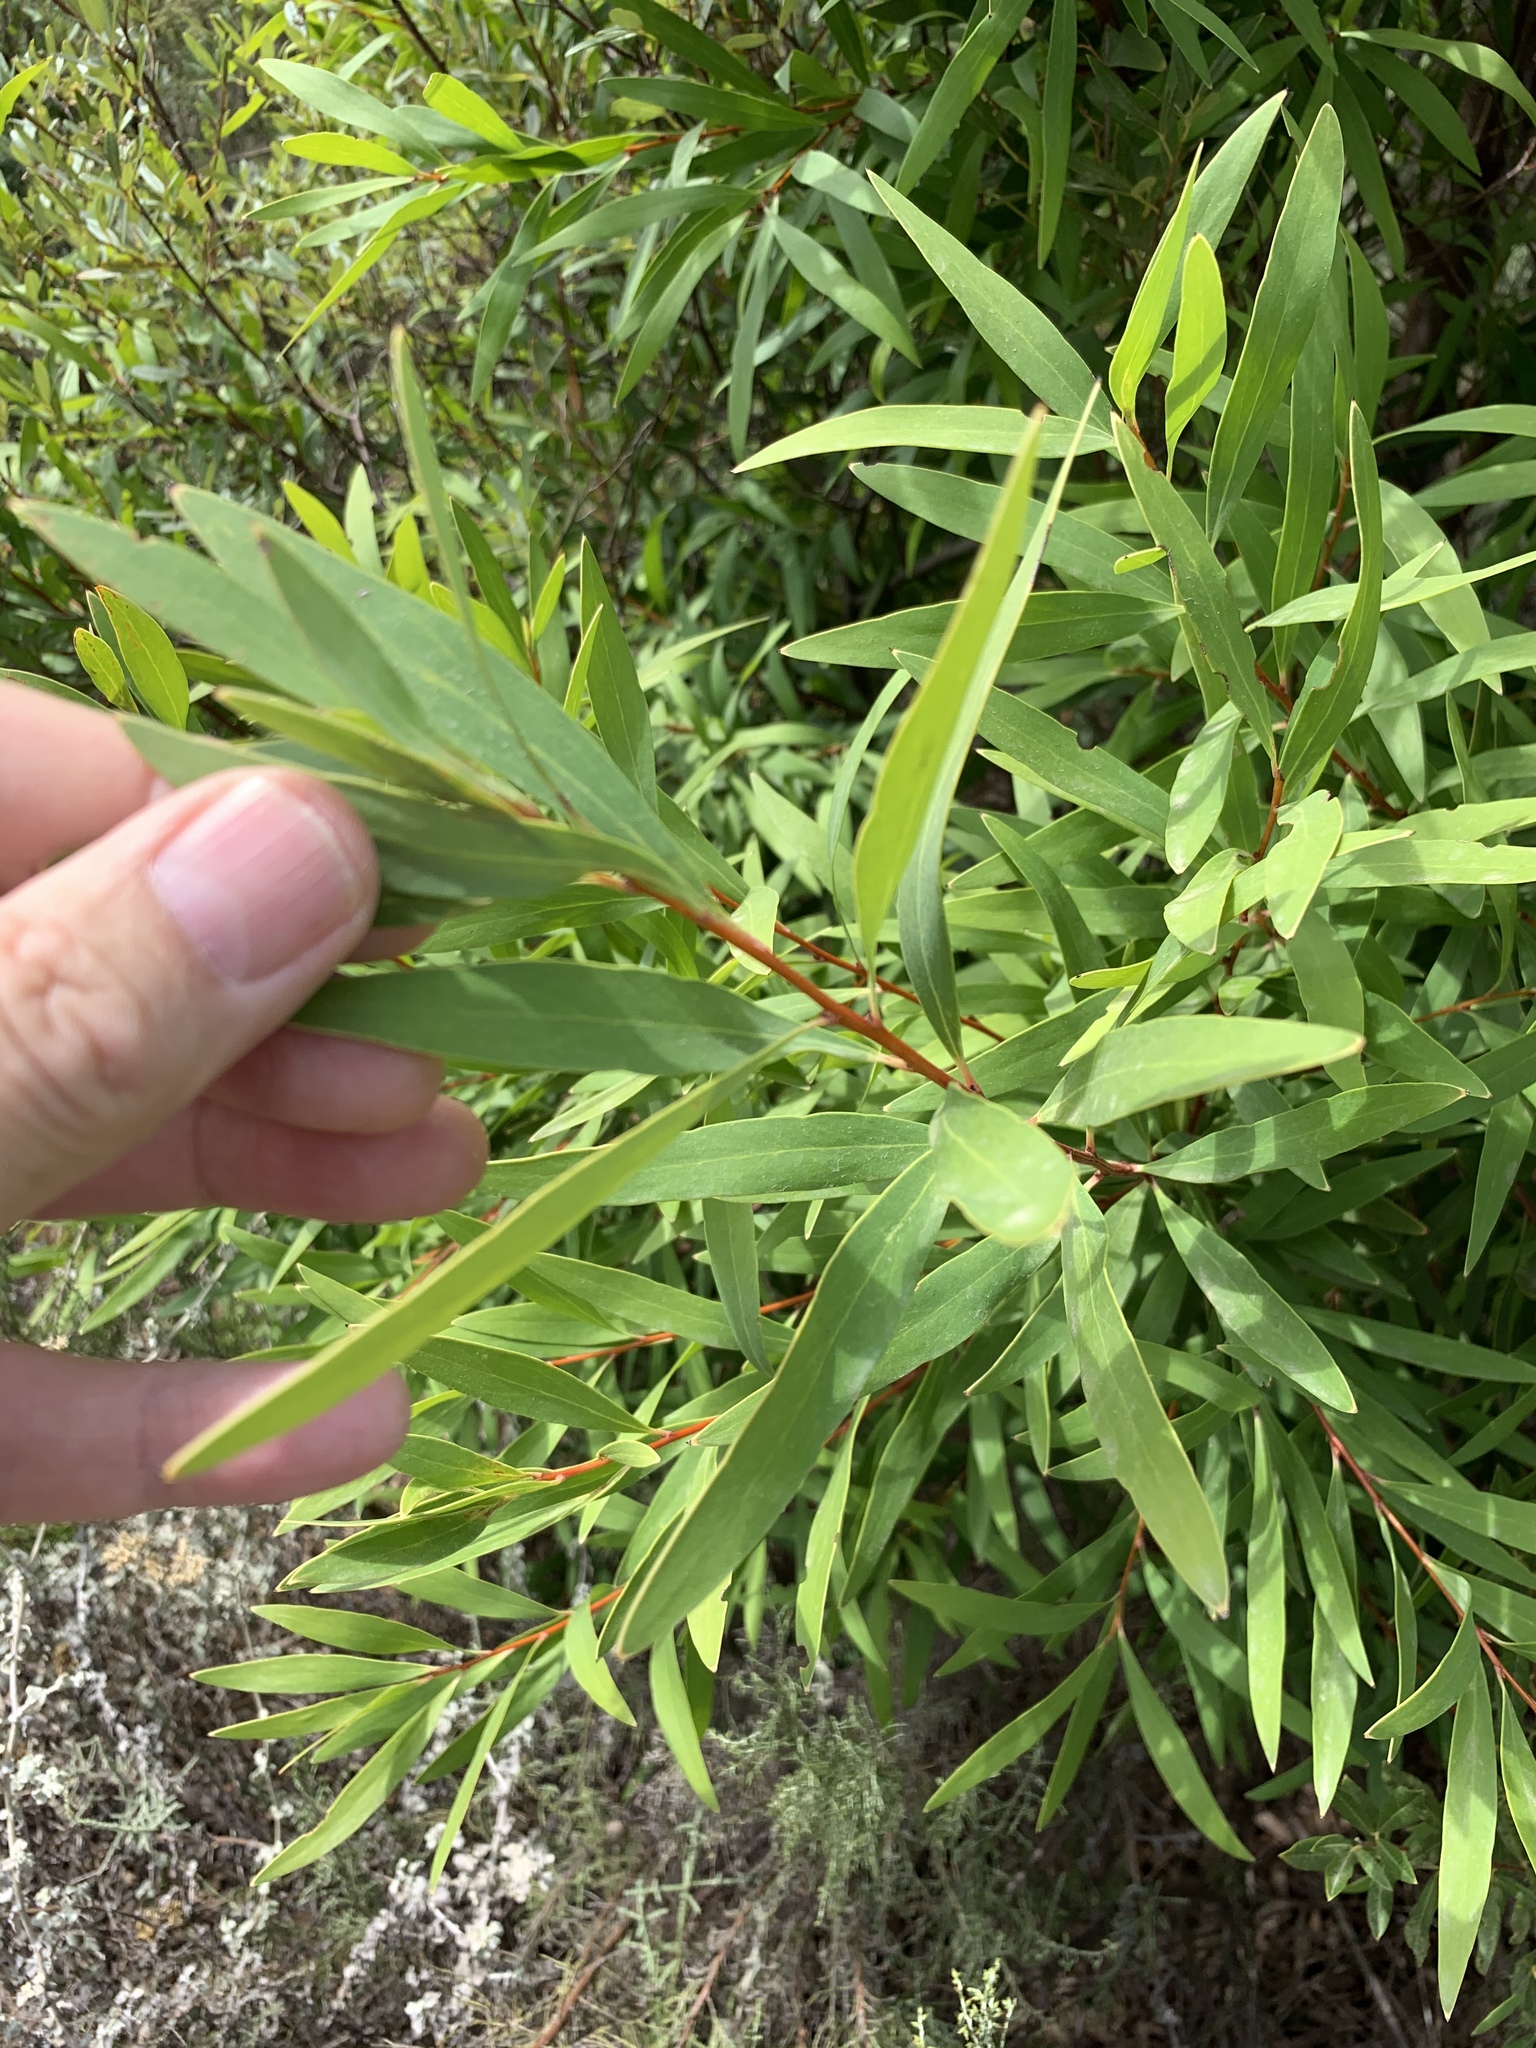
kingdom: Plantae
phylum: Tracheophyta
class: Magnoliopsida
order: Proteales
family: Proteaceae
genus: Hakea
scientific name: Hakea salicifolia
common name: Willow hakea
